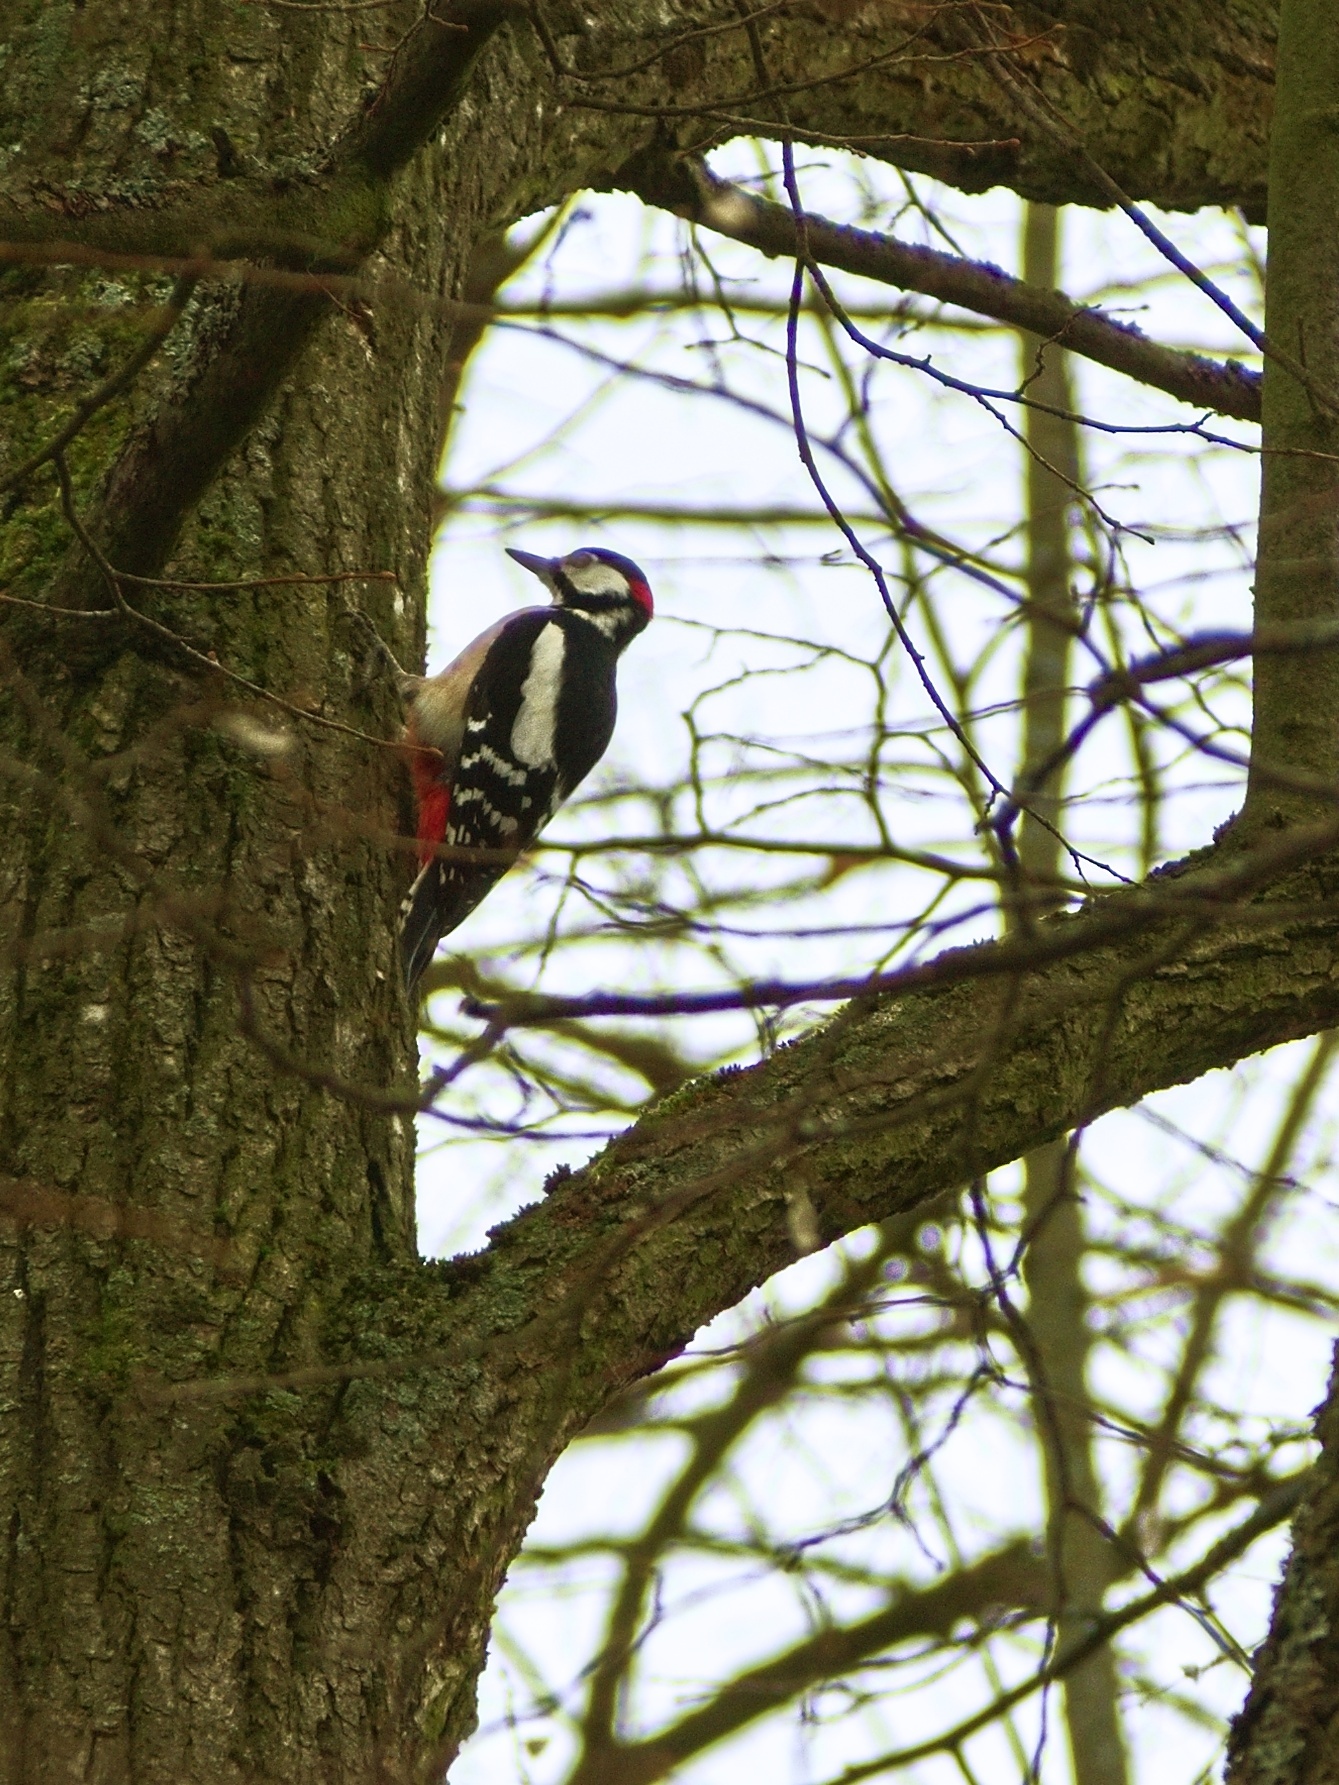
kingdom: Animalia
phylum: Chordata
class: Aves
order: Piciformes
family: Picidae
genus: Dendrocopos
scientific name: Dendrocopos major
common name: Great spotted woodpecker
